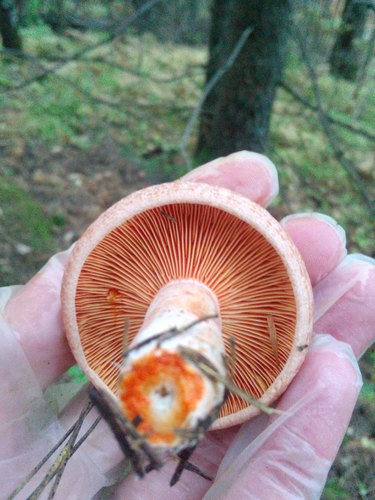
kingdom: Fungi
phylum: Basidiomycota
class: Agaricomycetes
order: Russulales
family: Russulaceae
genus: Lactarius
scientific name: Lactarius deliciosus
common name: Saffron milk-cap
